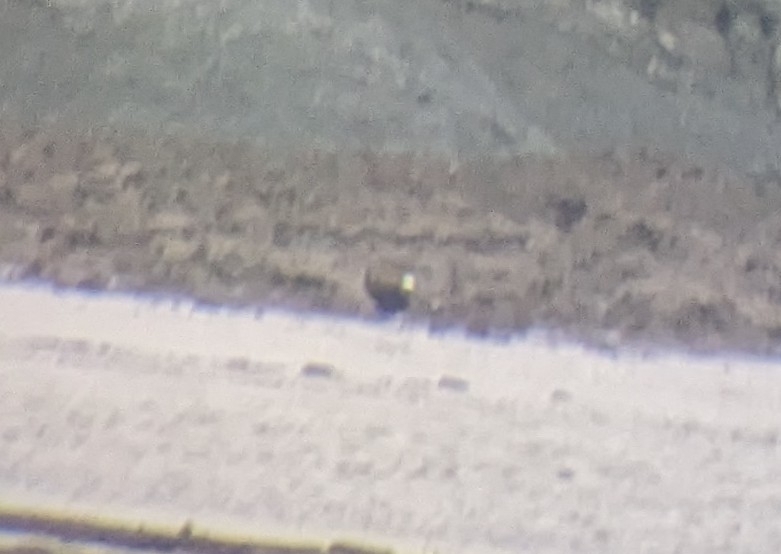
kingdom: Animalia
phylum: Chordata
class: Aves
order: Charadriiformes
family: Charadriidae
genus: Vanellus
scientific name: Vanellus vanellus
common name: Northern lapwing
